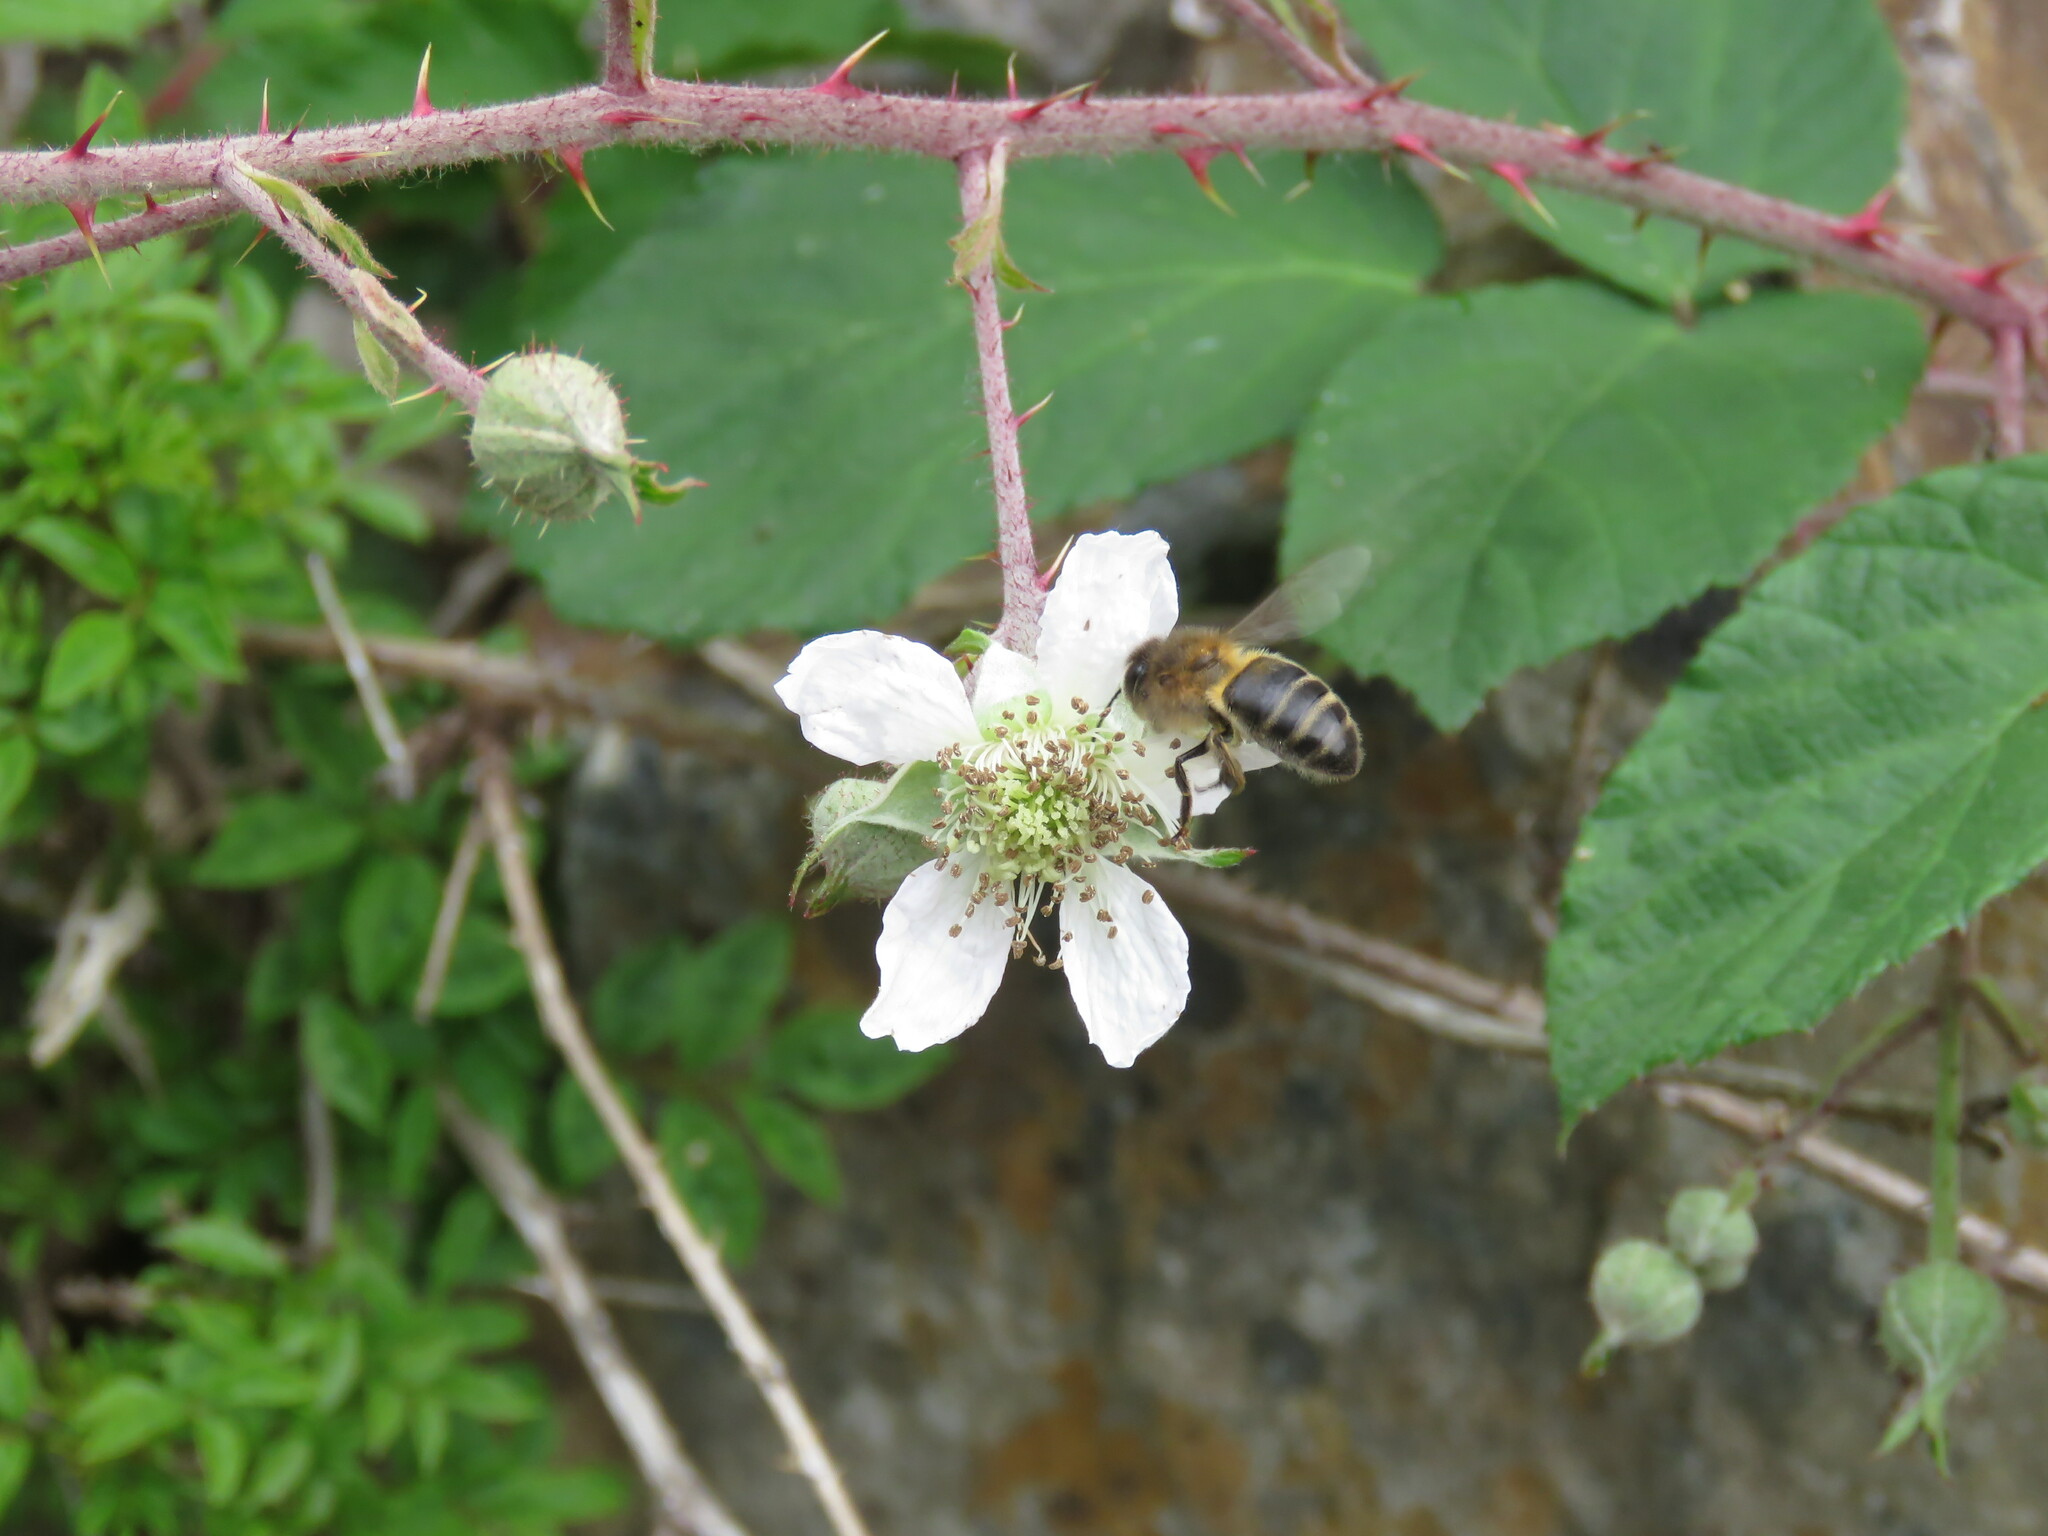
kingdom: Animalia
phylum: Arthropoda
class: Insecta
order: Hymenoptera
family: Apidae
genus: Apis
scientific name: Apis mellifera
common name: Honey bee
